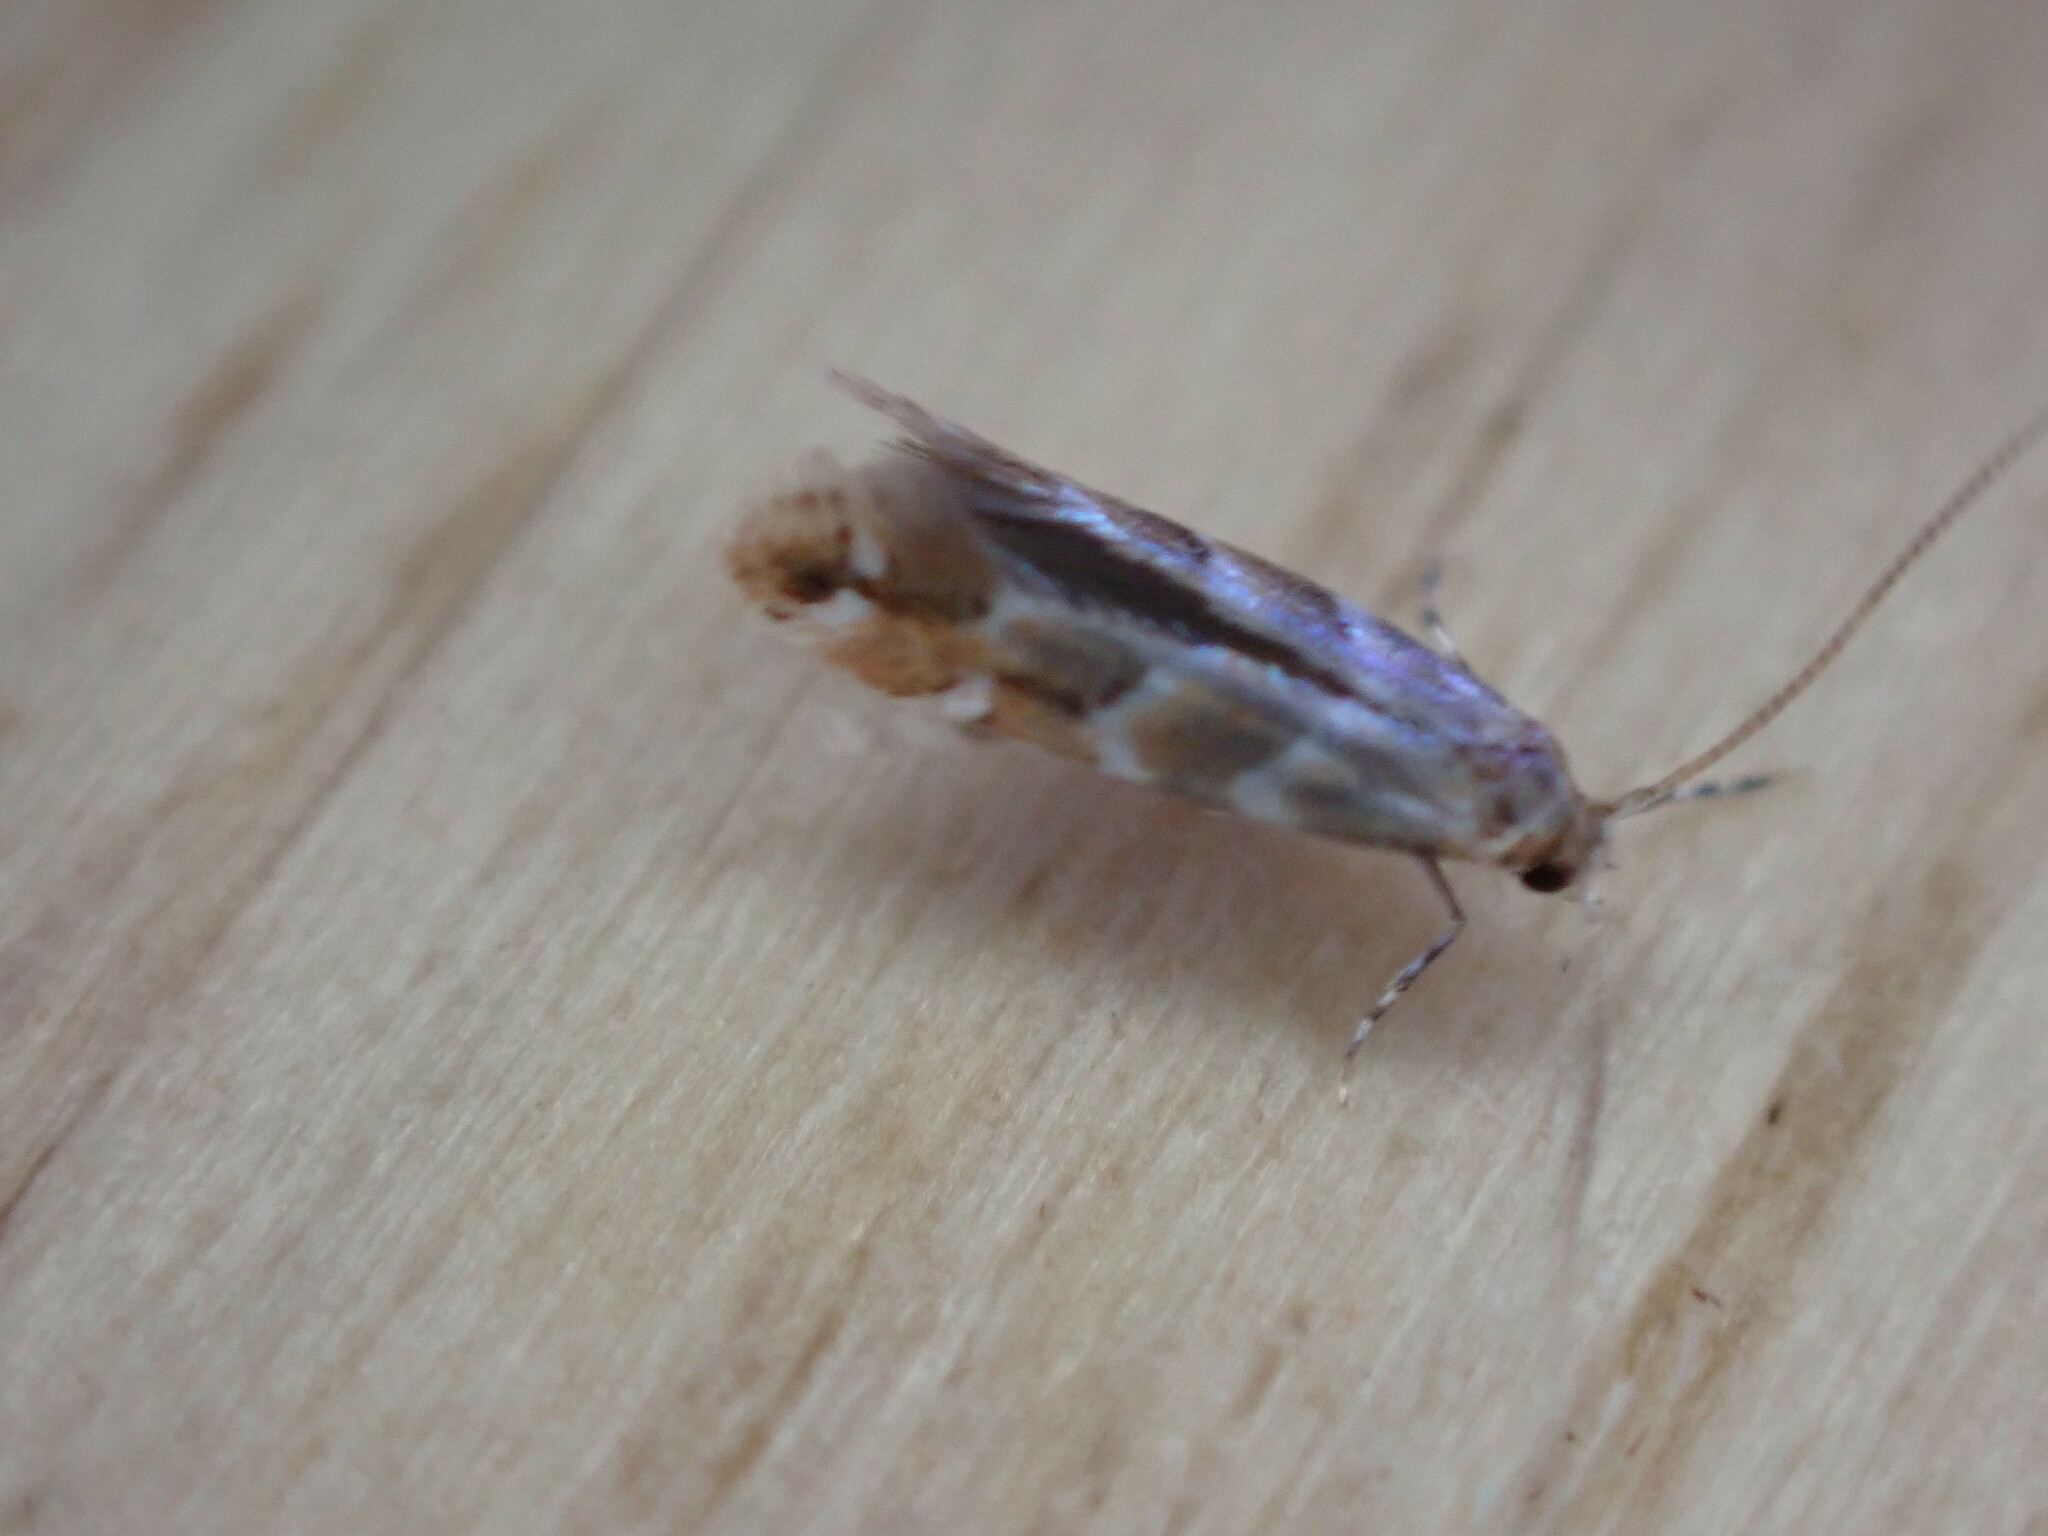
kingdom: Animalia
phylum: Arthropoda
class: Insecta
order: Lepidoptera
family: Gracillariidae
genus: Cameraria
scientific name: Cameraria ohridella
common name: Horse-chestnut leaf-miner
